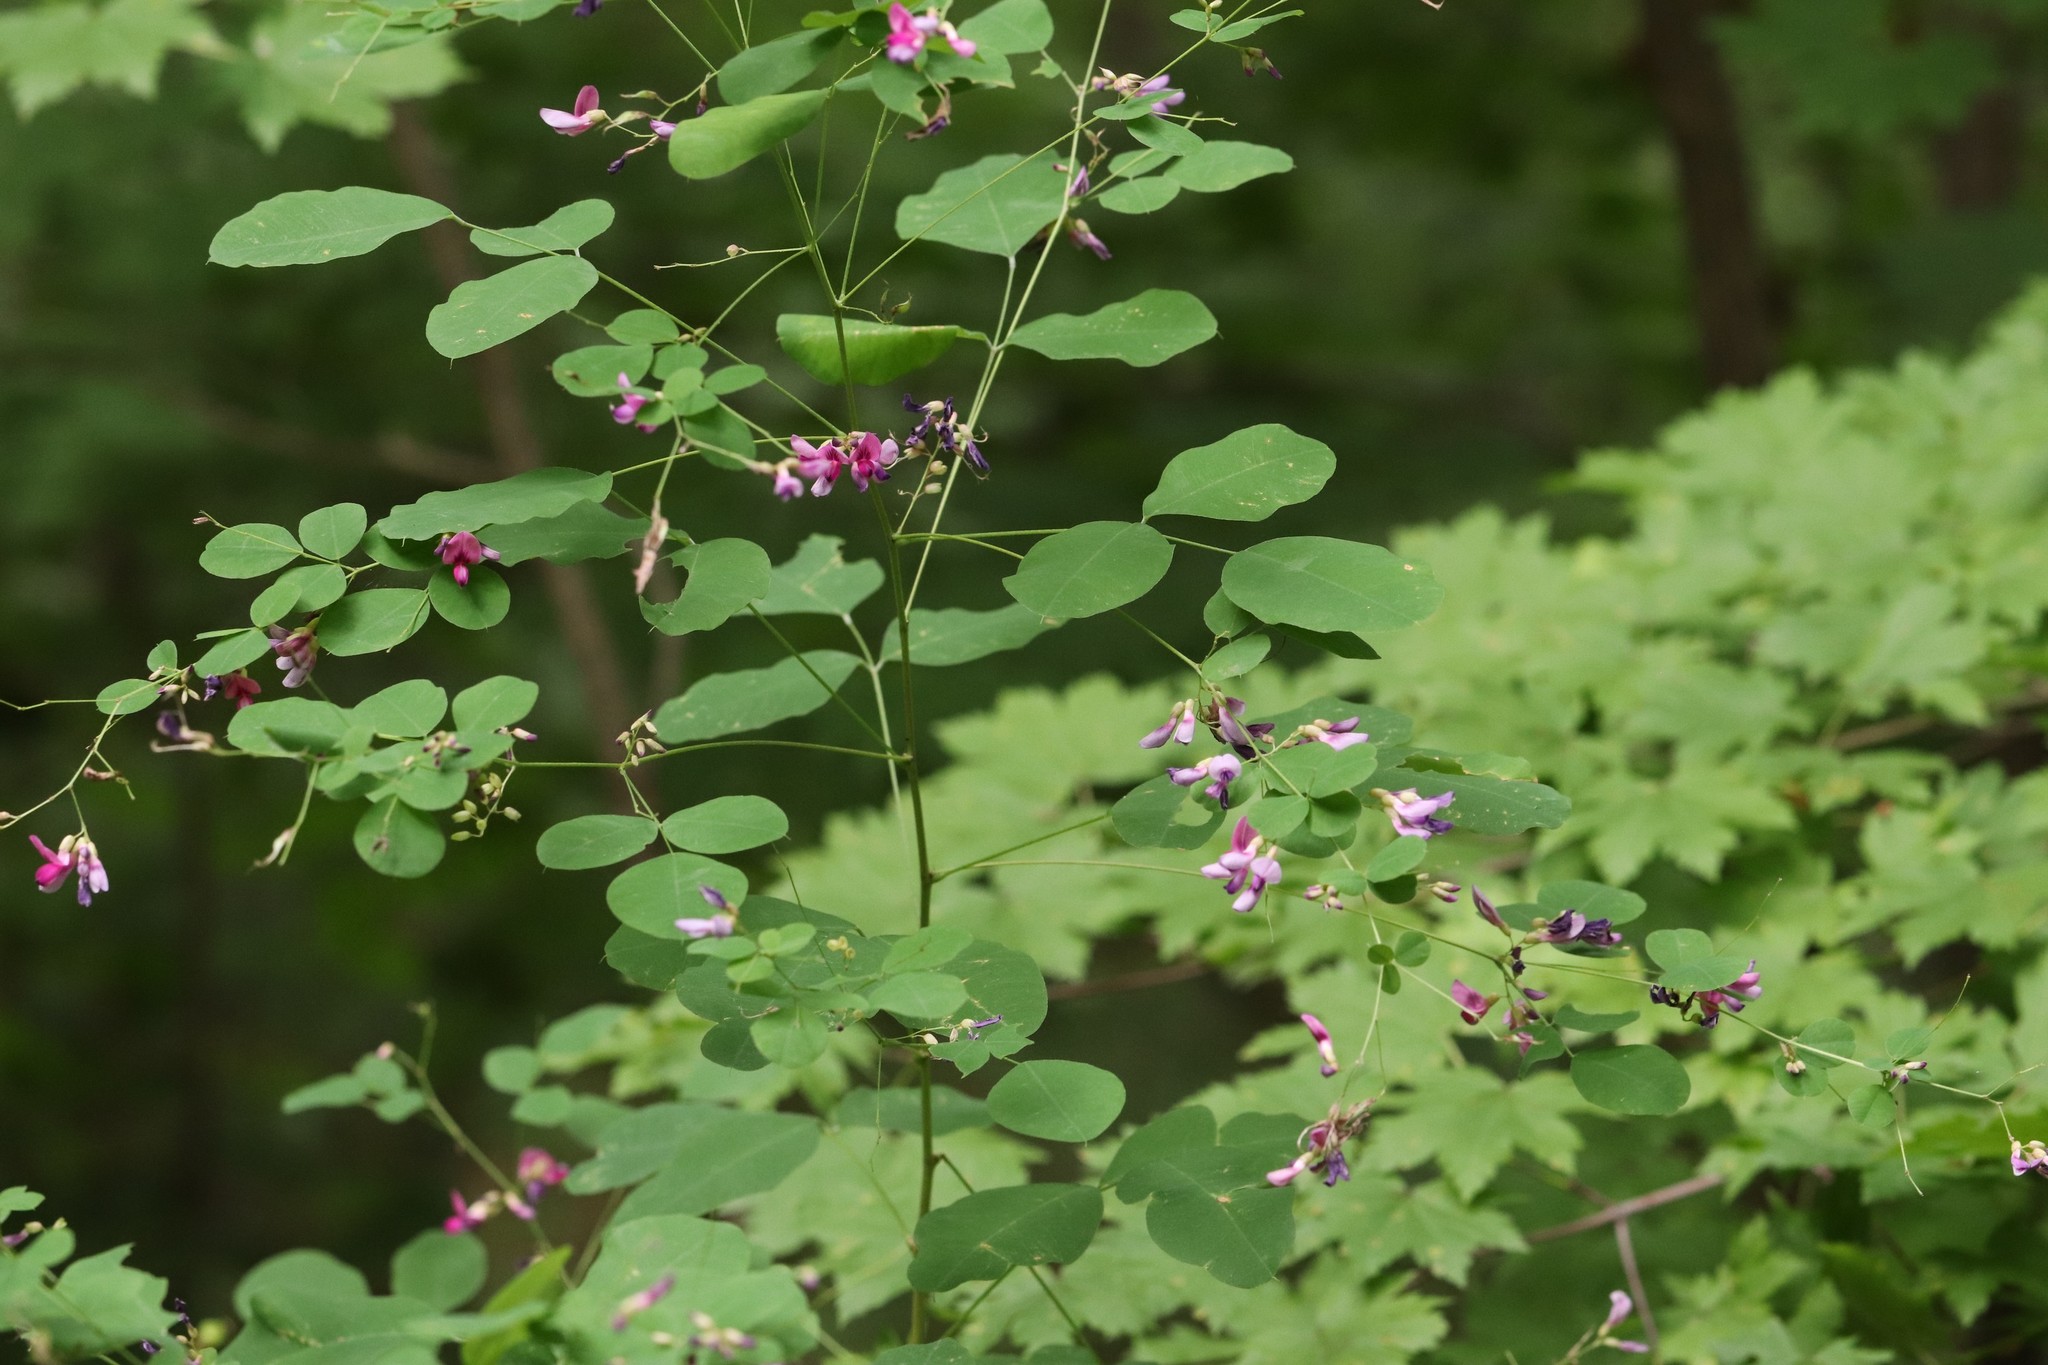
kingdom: Plantae
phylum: Tracheophyta
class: Magnoliopsida
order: Fabales
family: Fabaceae
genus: Lespedeza
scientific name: Lespedeza bicolor
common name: Shrub lespedeza
